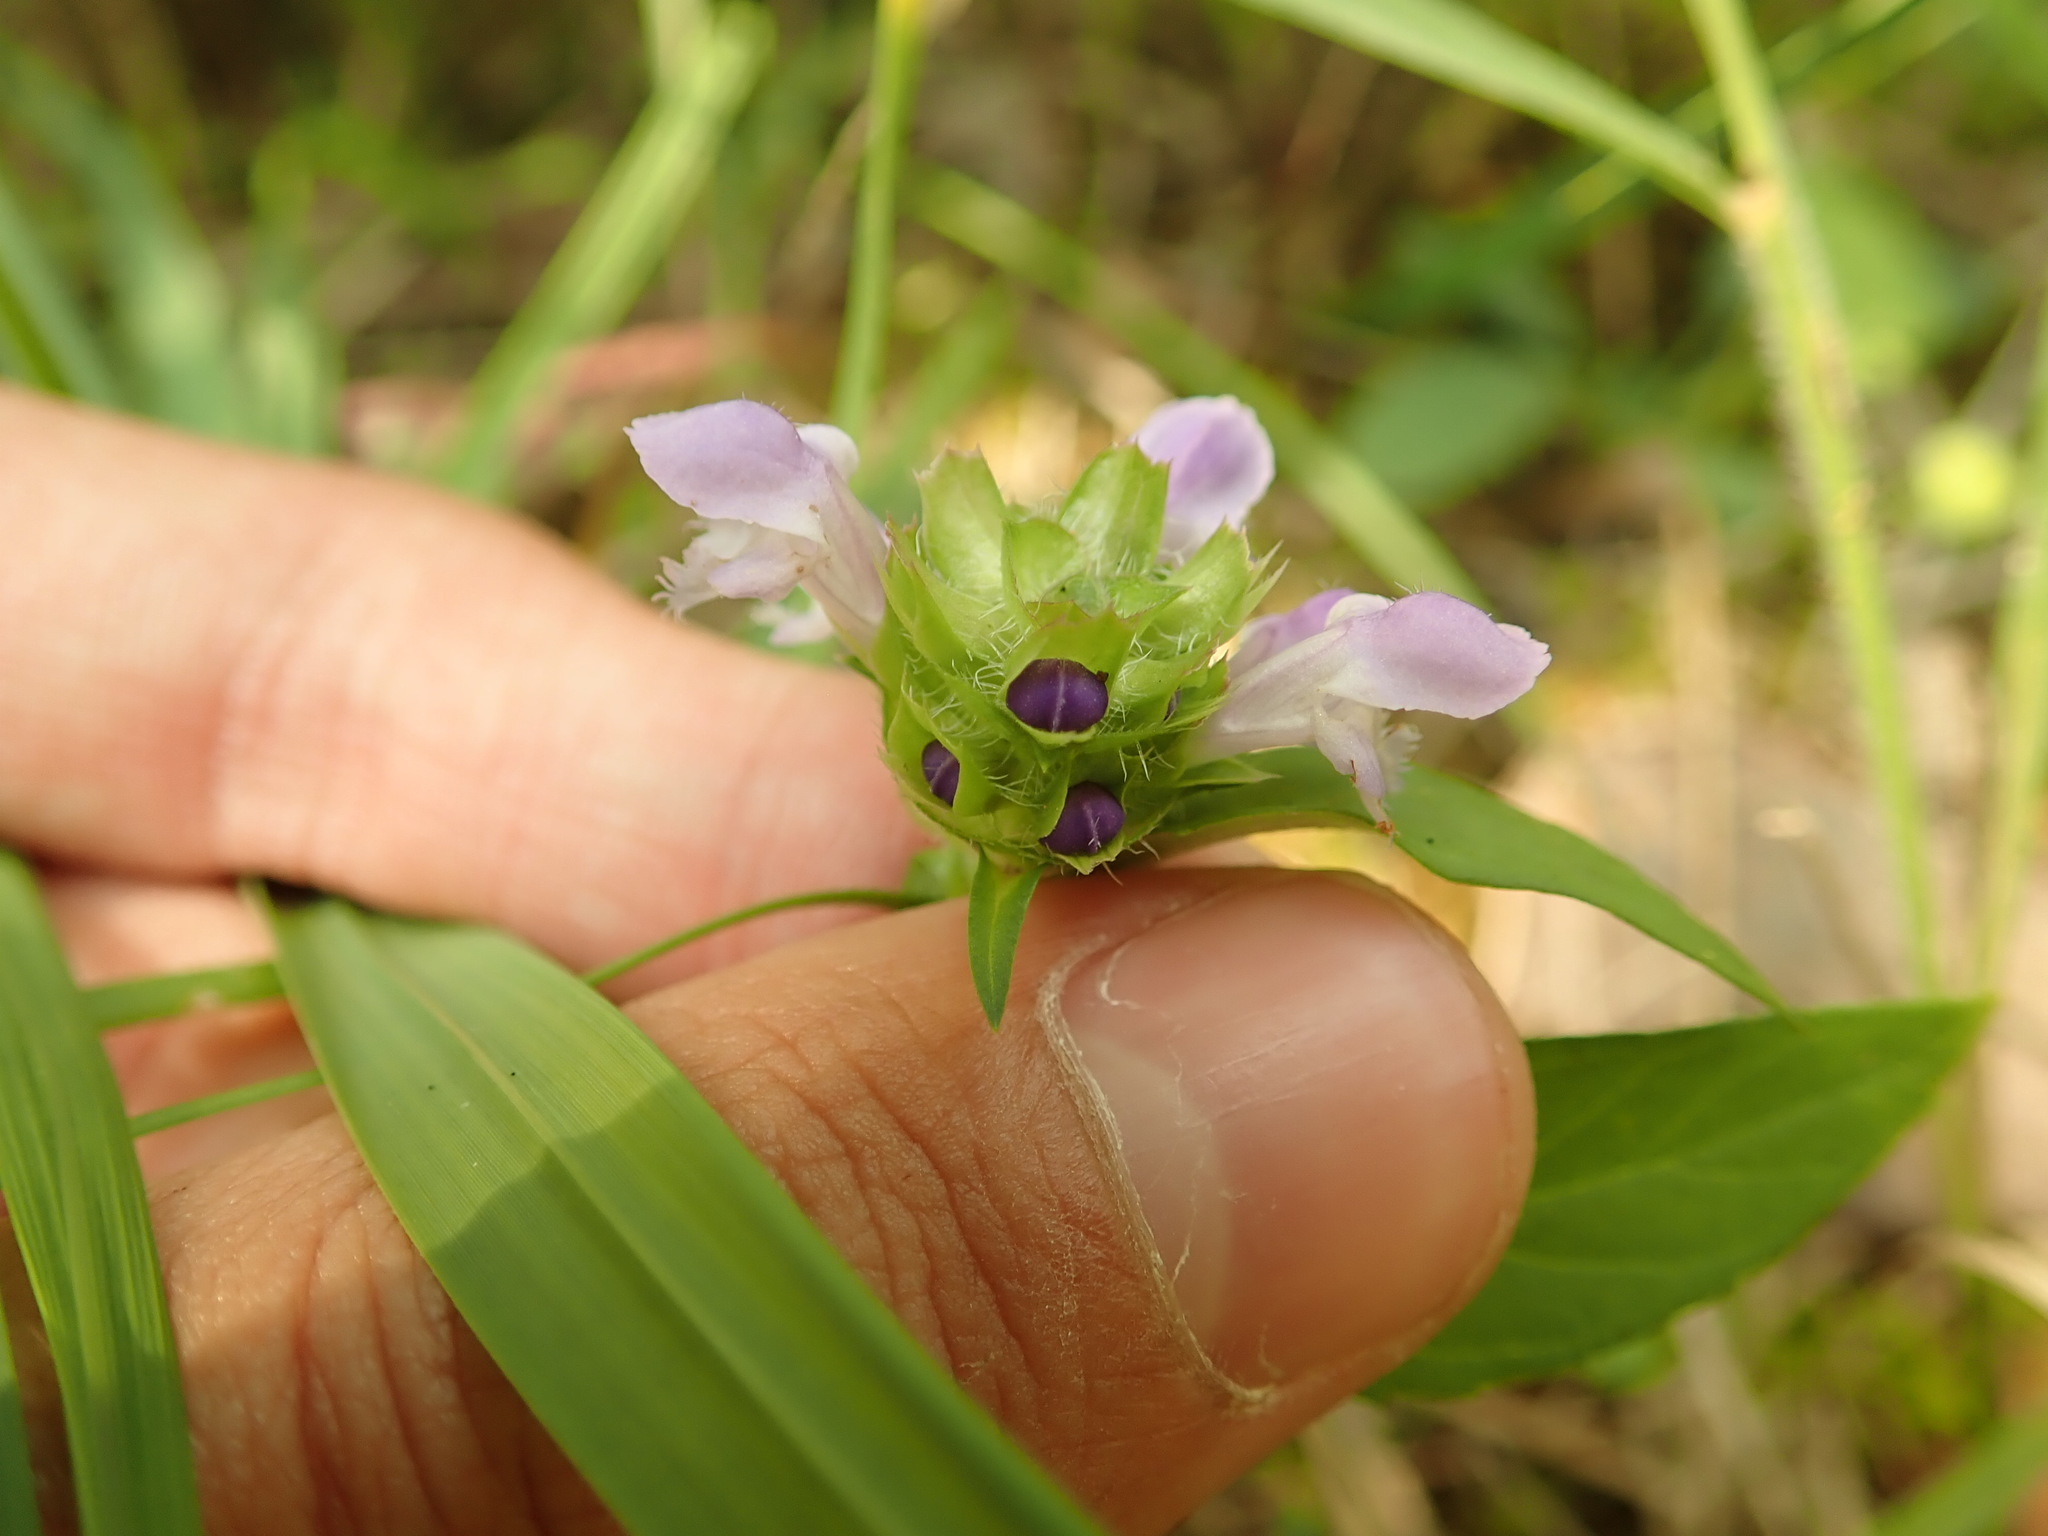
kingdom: Plantae
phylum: Tracheophyta
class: Magnoliopsida
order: Lamiales
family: Lamiaceae
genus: Prunella
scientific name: Prunella vulgaris
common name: Heal-all
